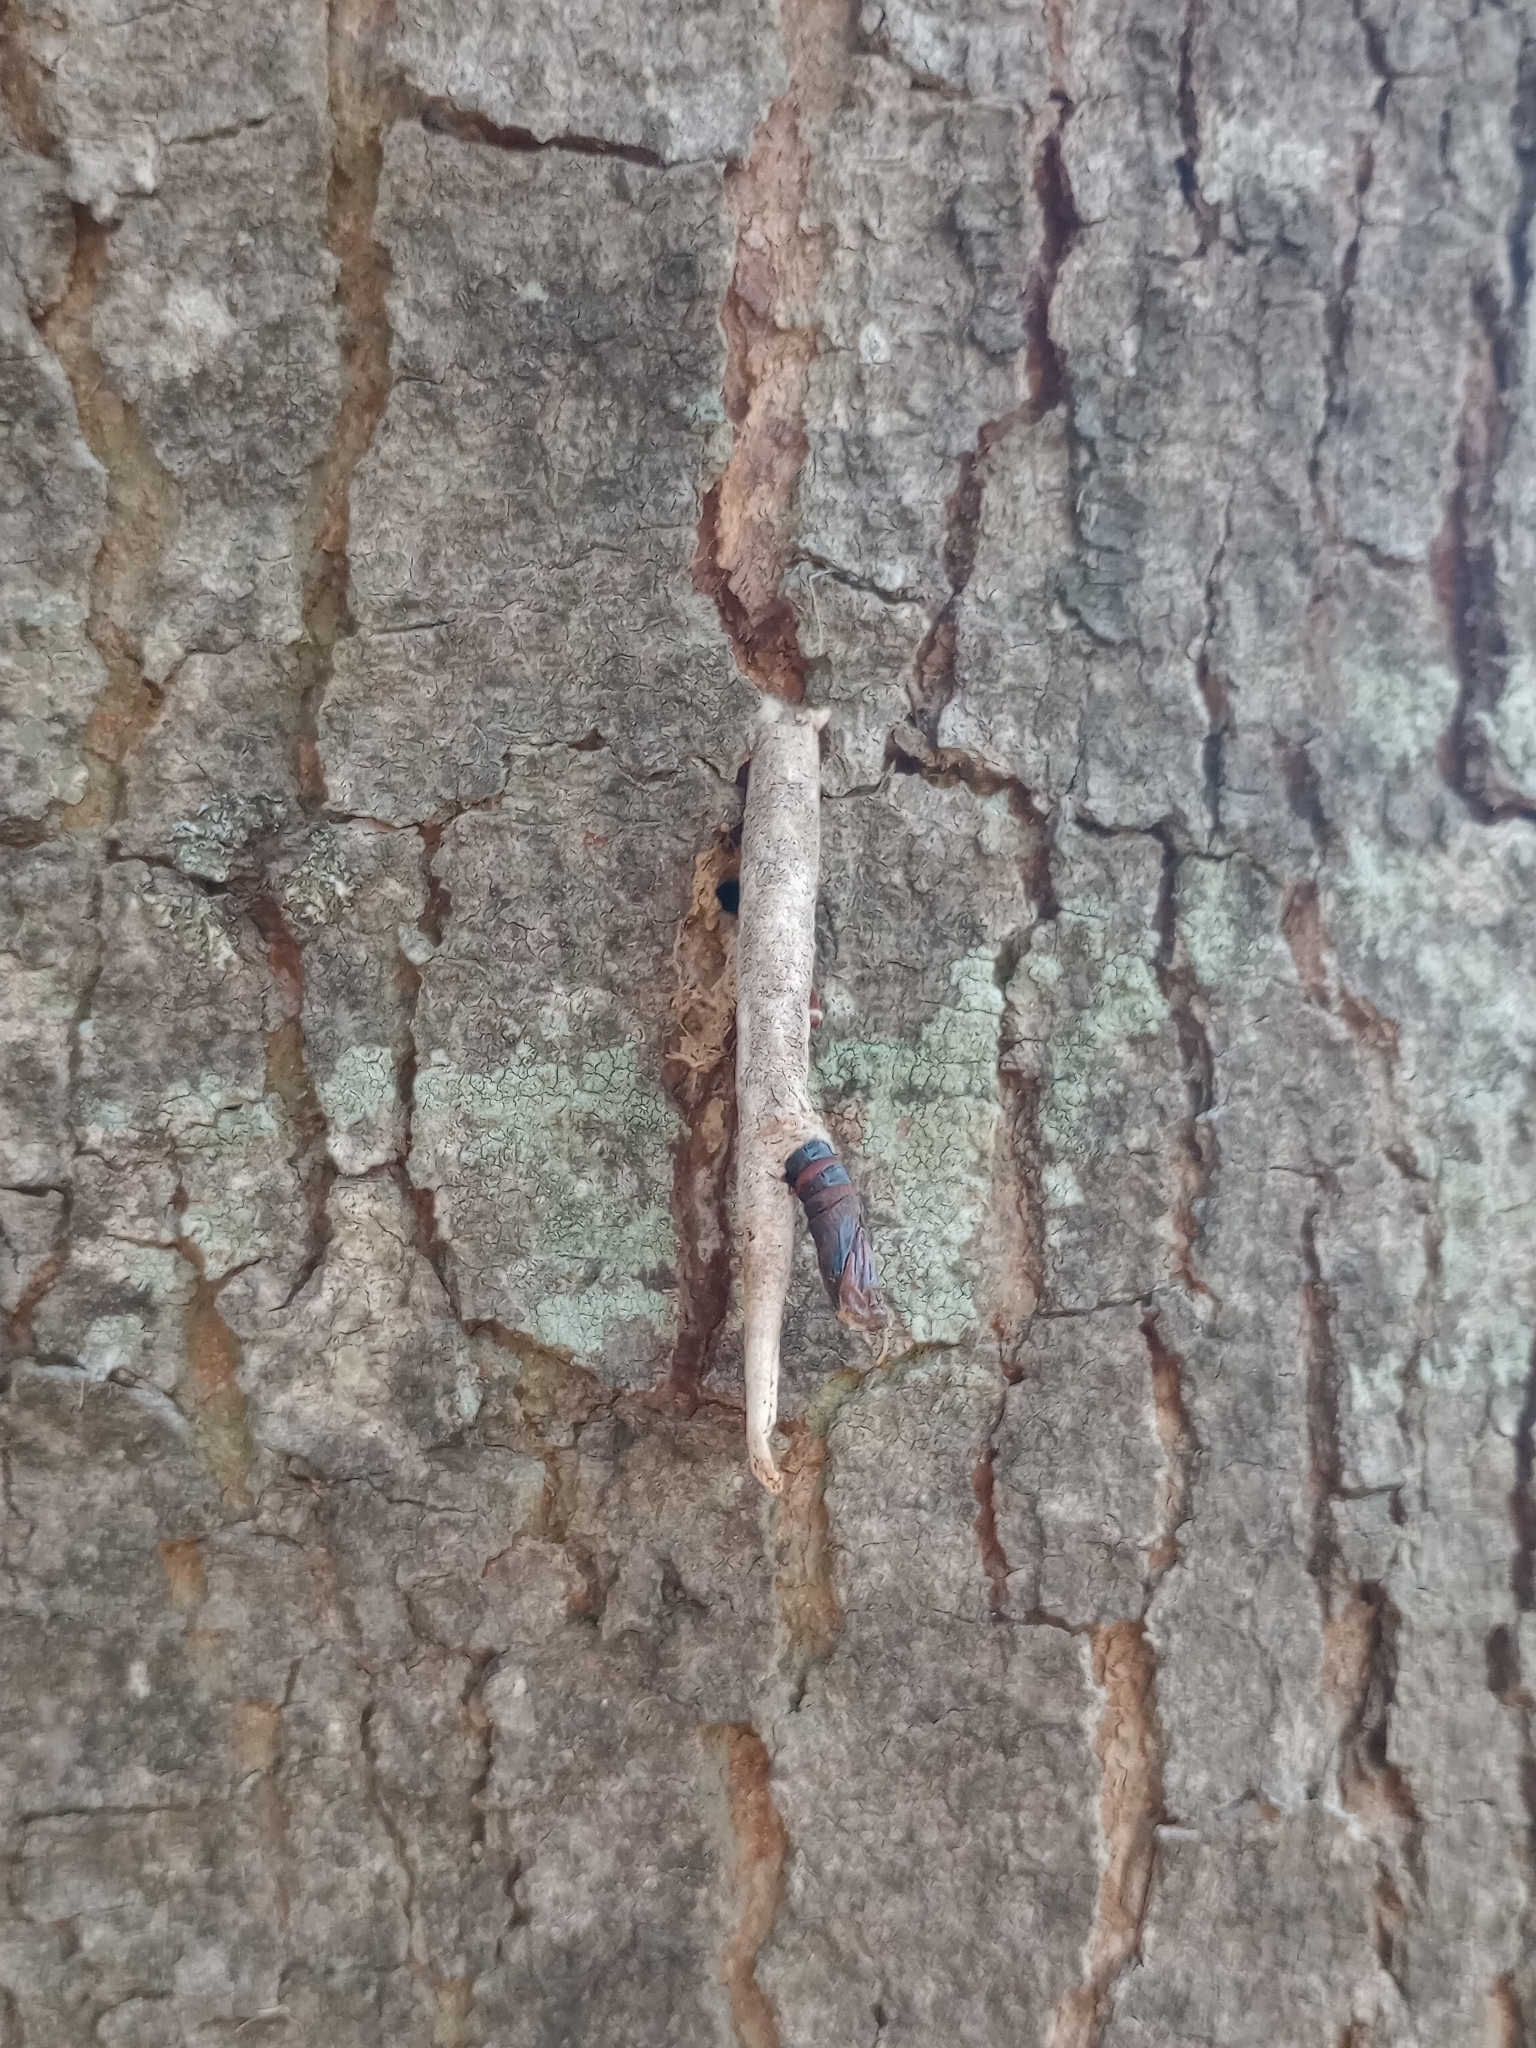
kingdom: Animalia
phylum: Arthropoda
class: Insecta
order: Lepidoptera
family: Psychidae
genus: Oiketicus
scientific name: Oiketicus geyeri
